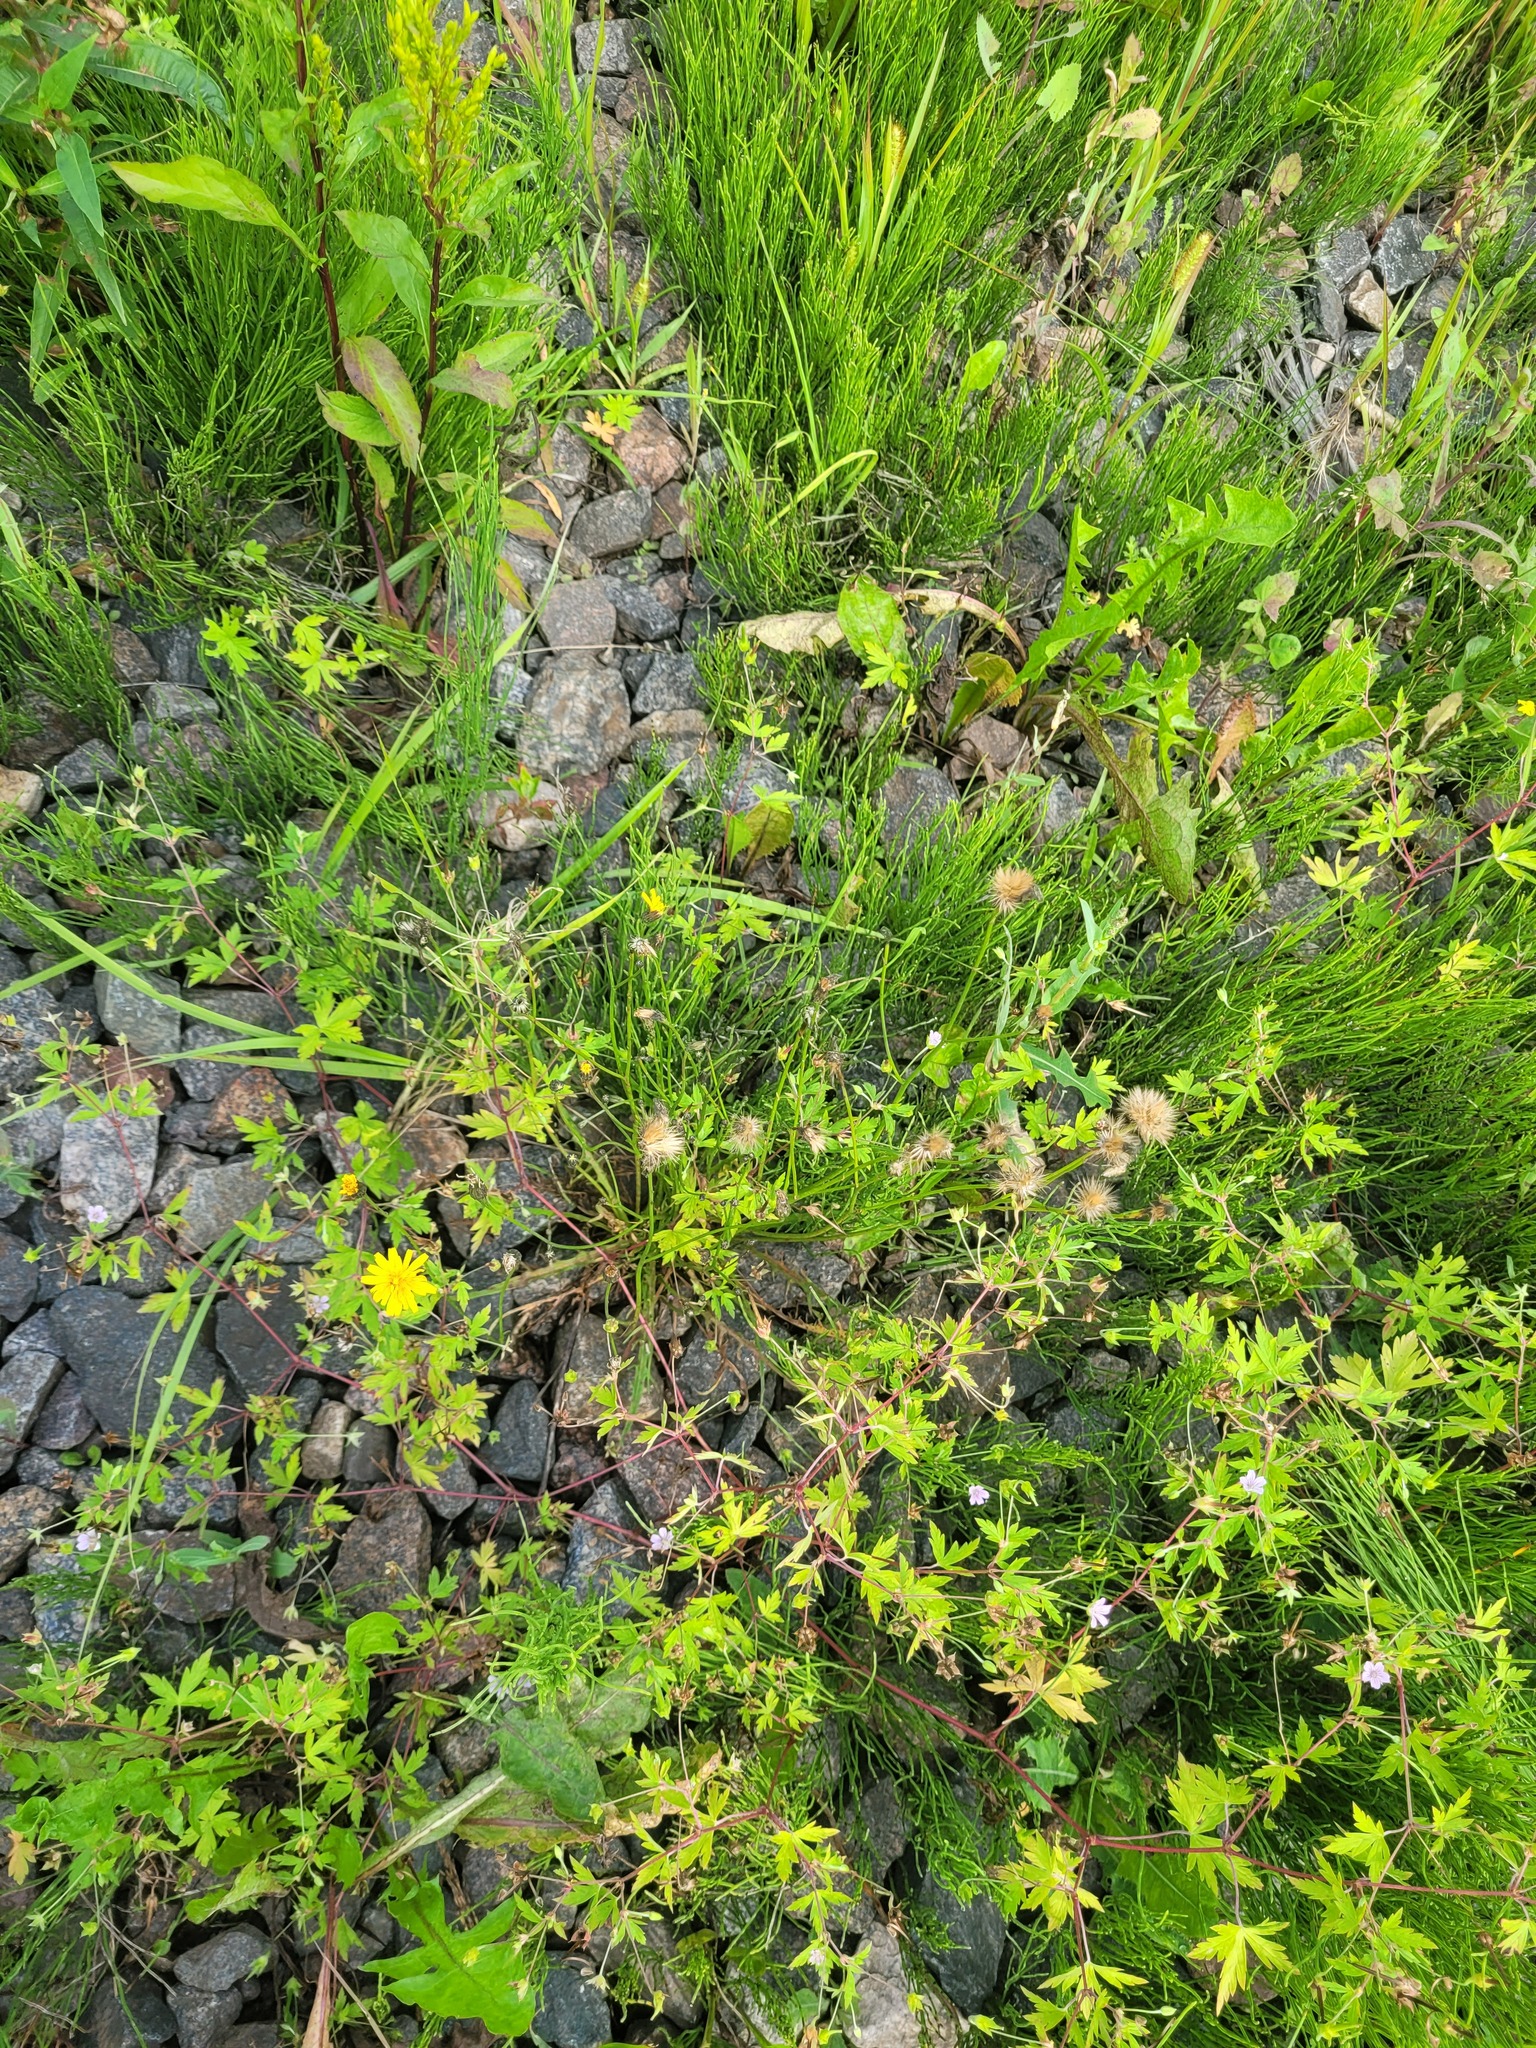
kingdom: Plantae
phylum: Tracheophyta
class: Magnoliopsida
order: Asterales
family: Asteraceae
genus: Scorzoneroides
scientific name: Scorzoneroides autumnalis
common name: Autumn hawkbit
